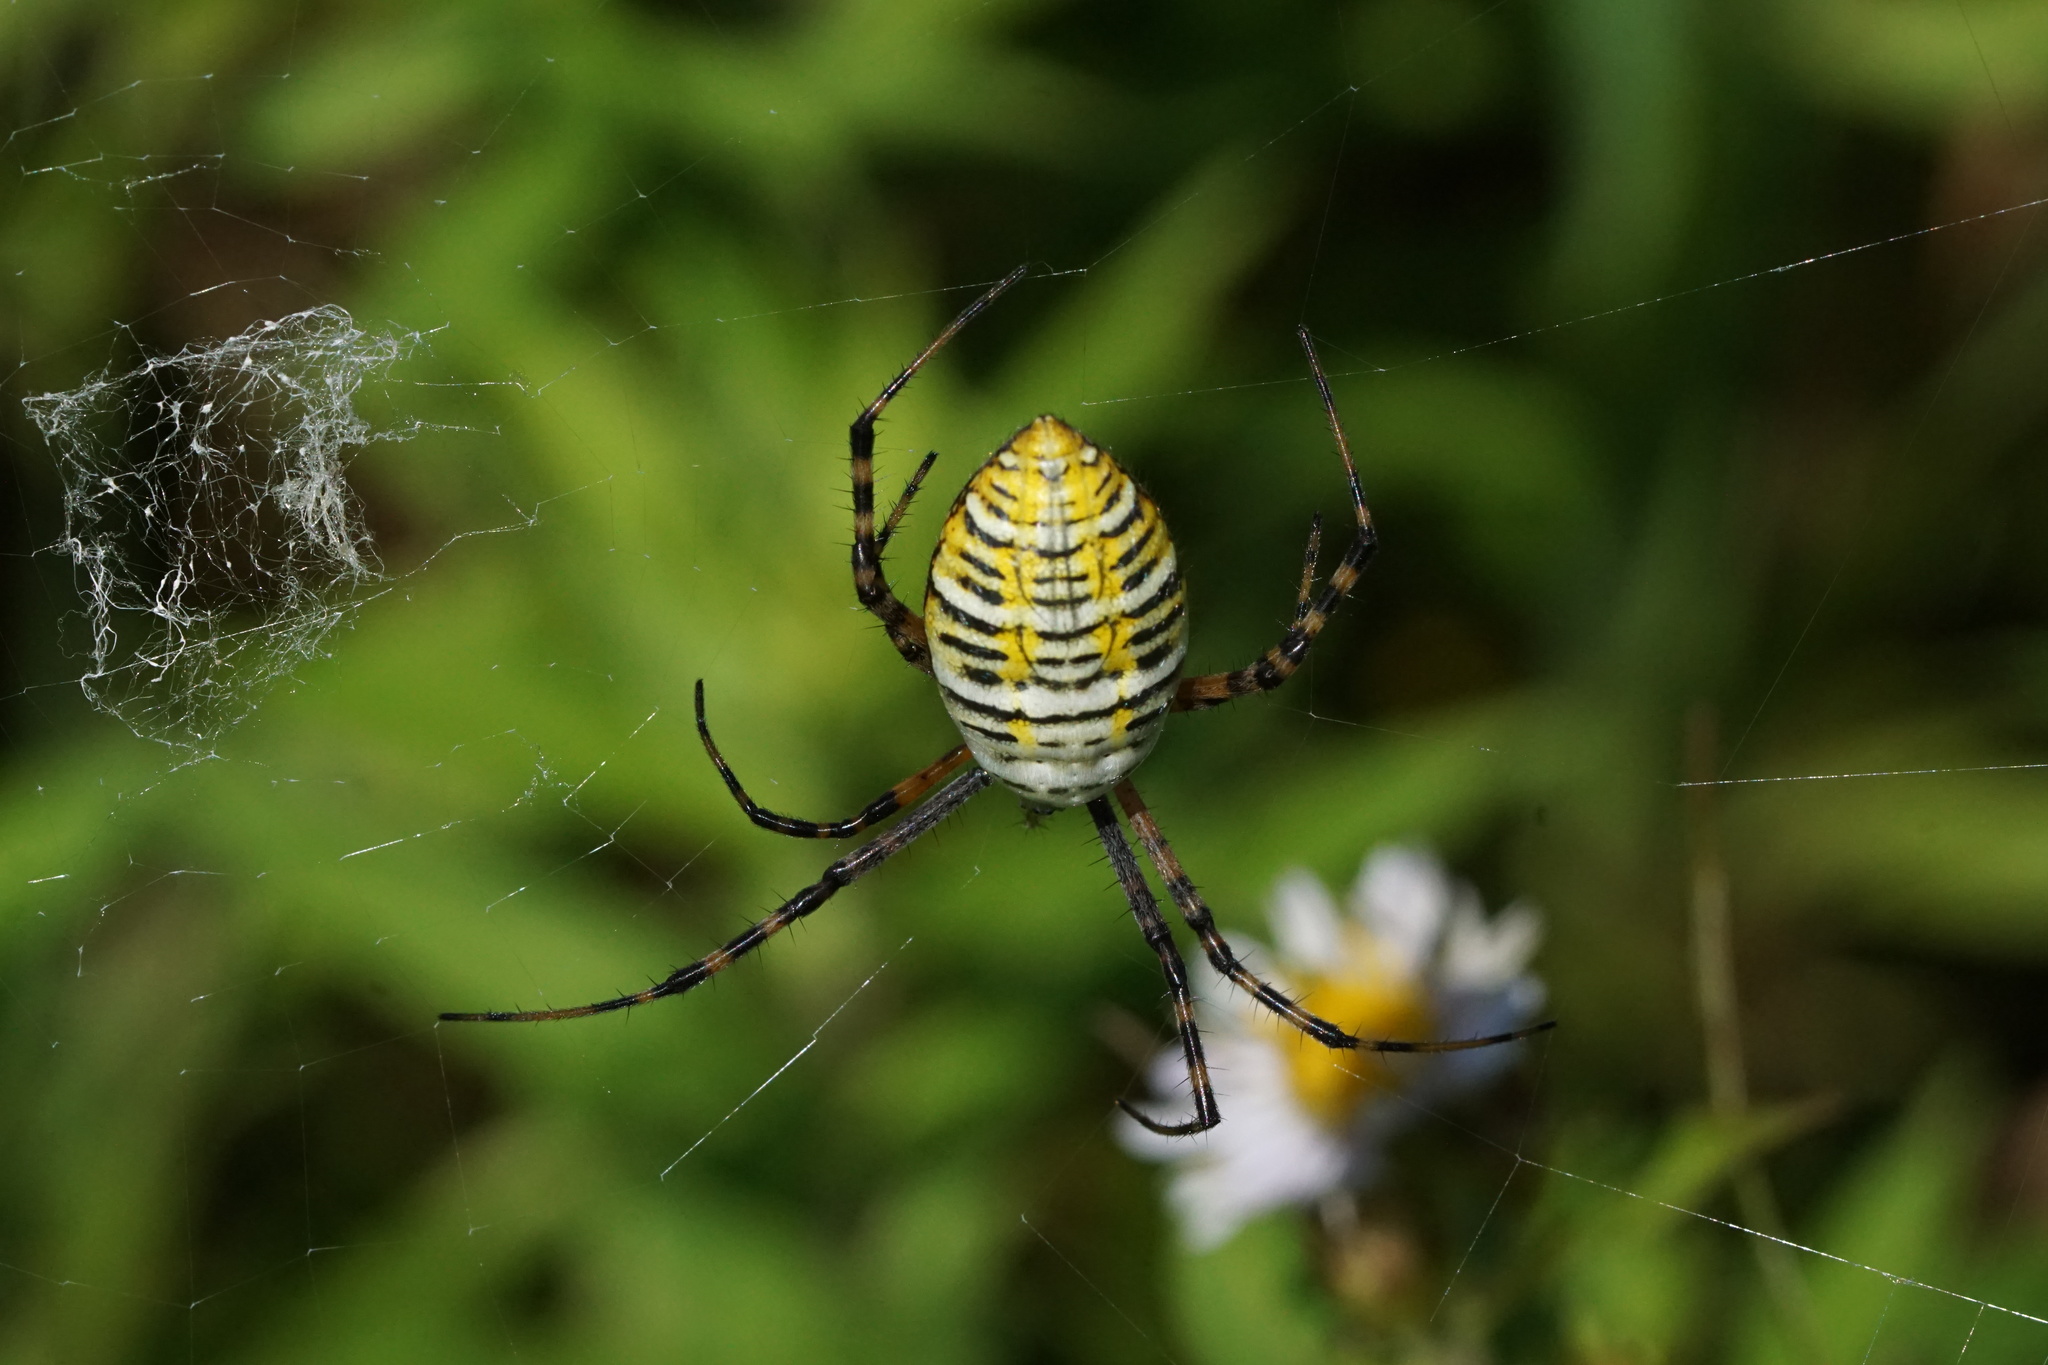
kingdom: Animalia
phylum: Arthropoda
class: Arachnida
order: Araneae
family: Araneidae
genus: Argiope
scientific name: Argiope trifasciata
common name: Banded garden spider
